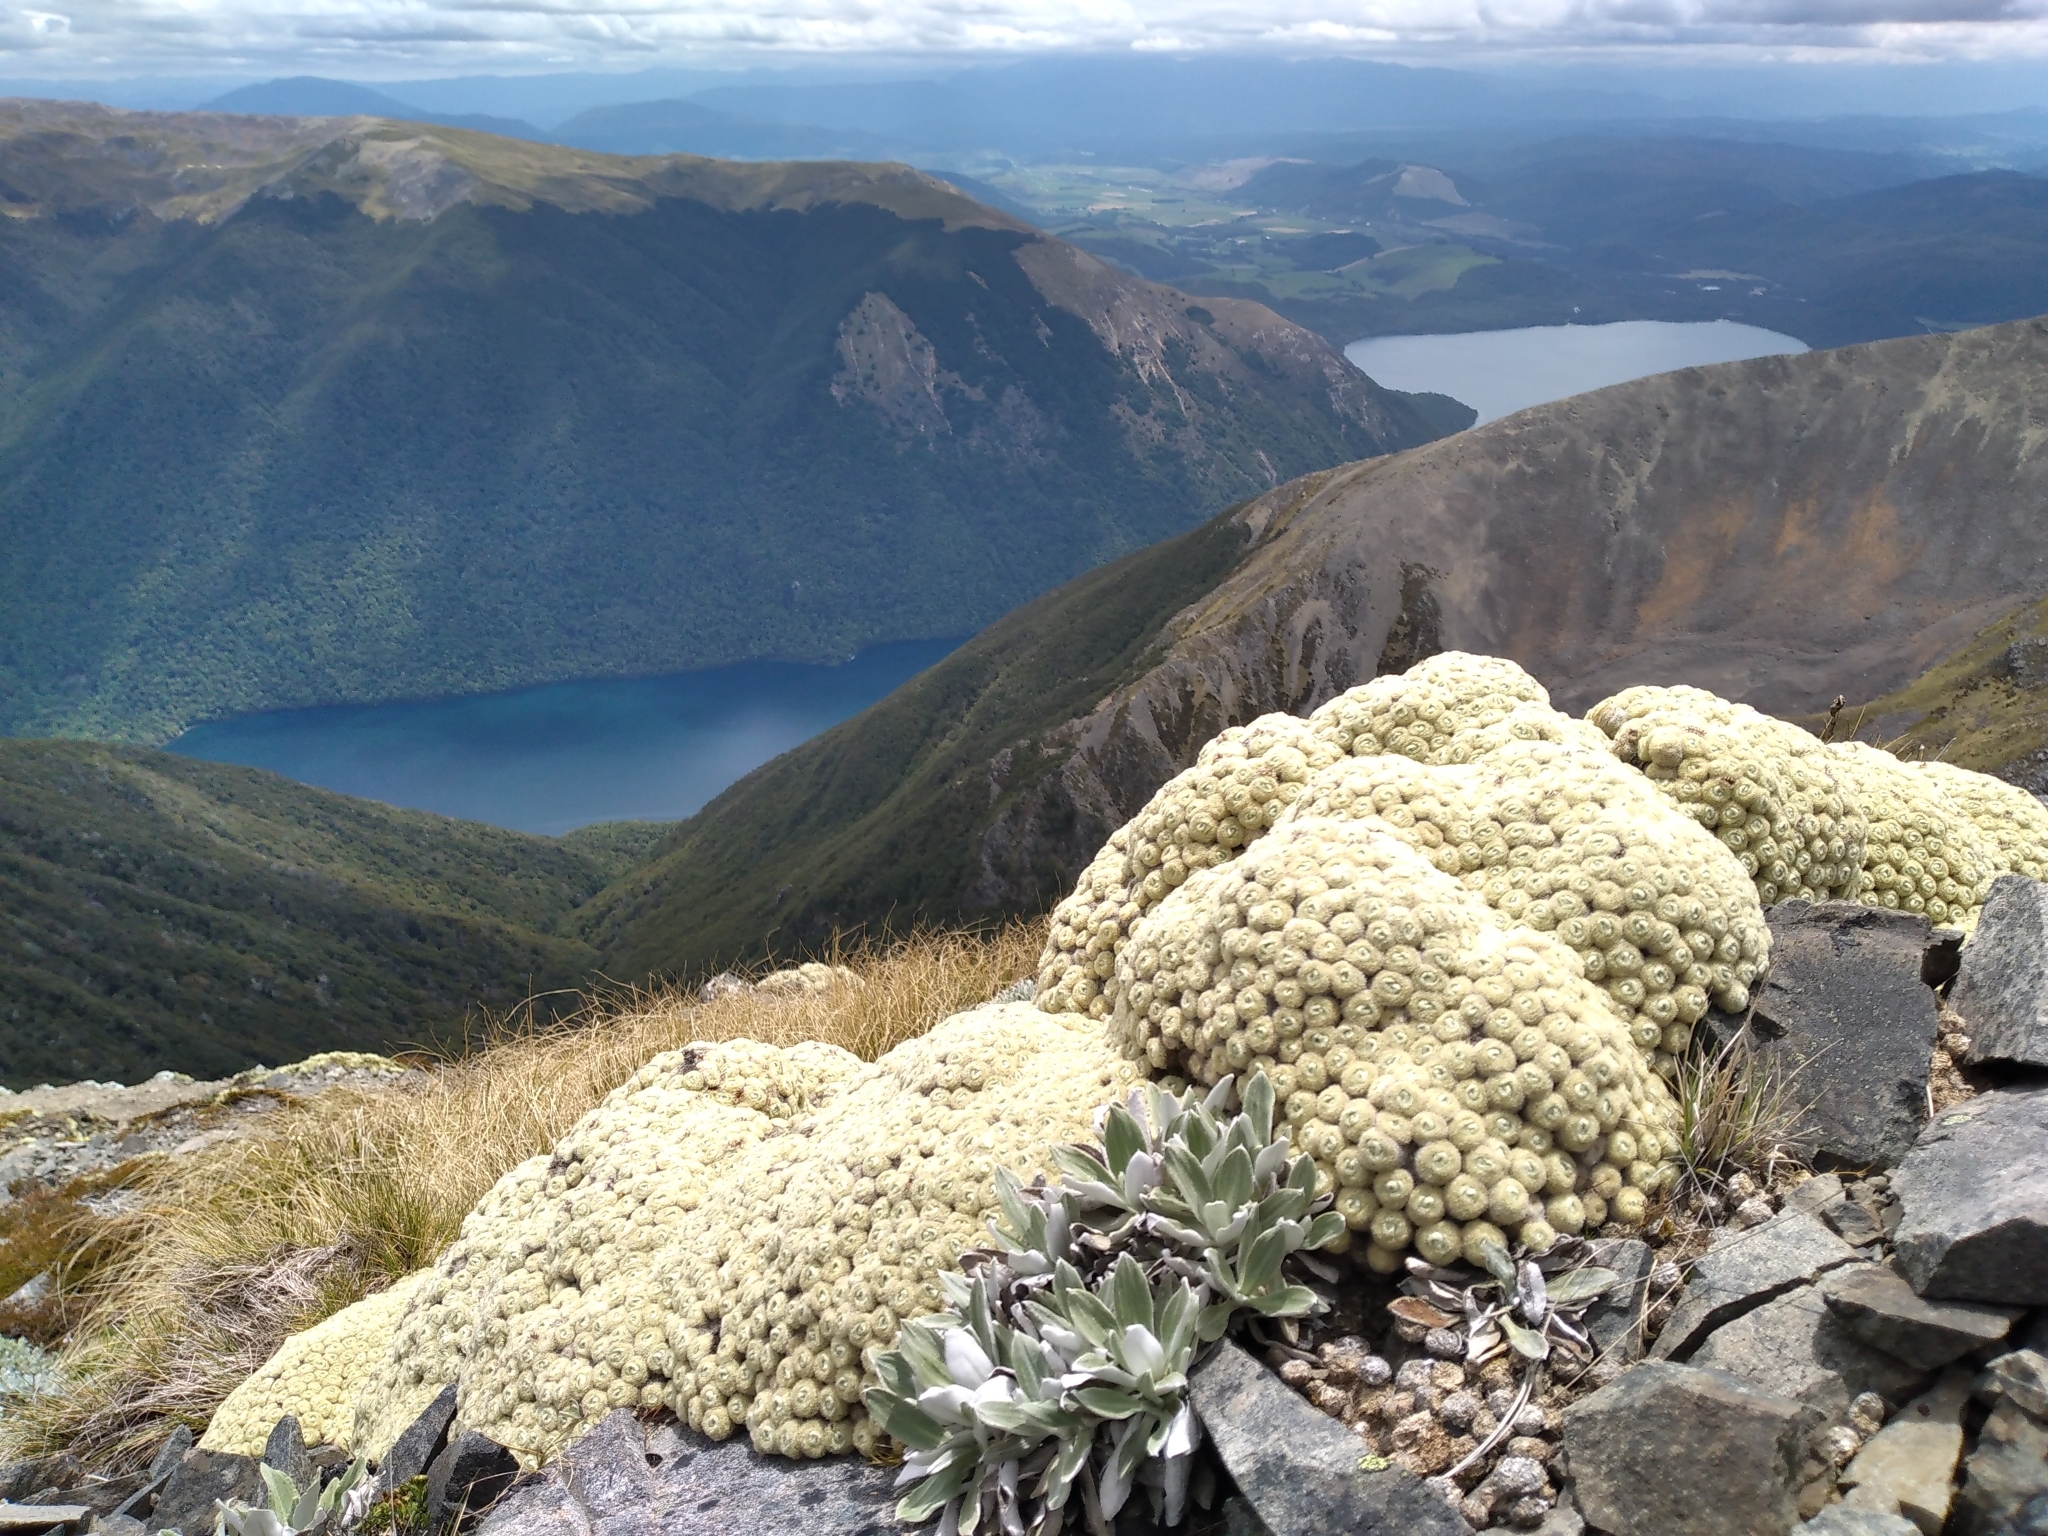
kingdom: Plantae
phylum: Tracheophyta
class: Magnoliopsida
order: Asterales
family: Asteraceae
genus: Haastia
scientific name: Haastia pulvinaris
